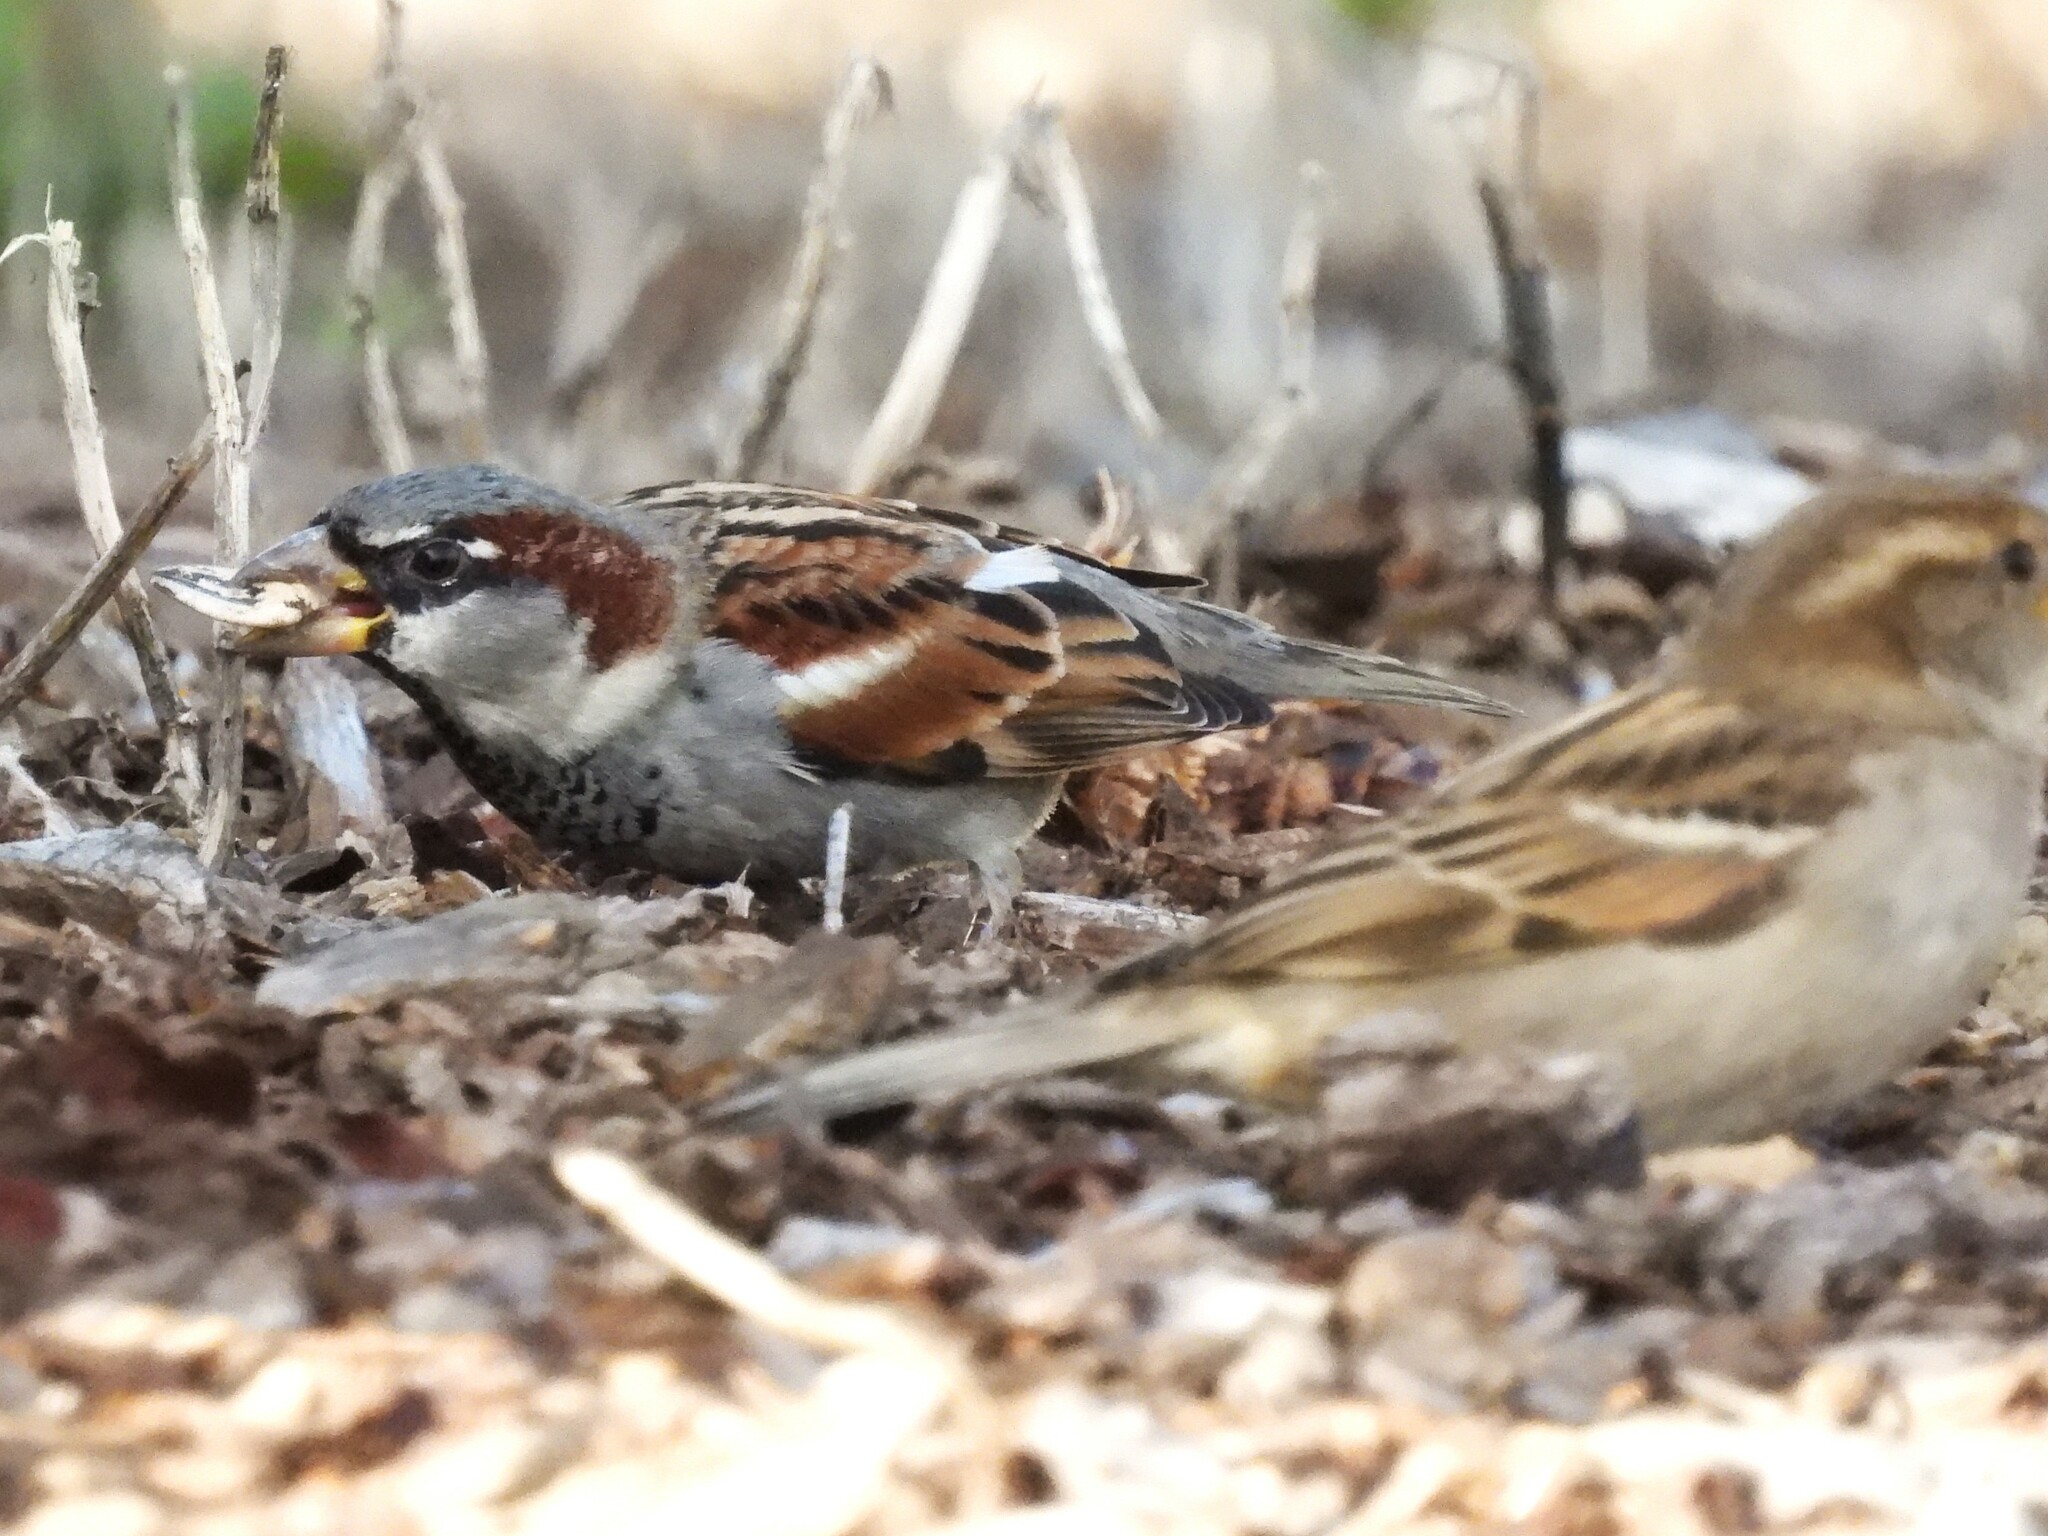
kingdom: Animalia
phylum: Chordata
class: Aves
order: Passeriformes
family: Passeridae
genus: Passer
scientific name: Passer domesticus
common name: House sparrow
